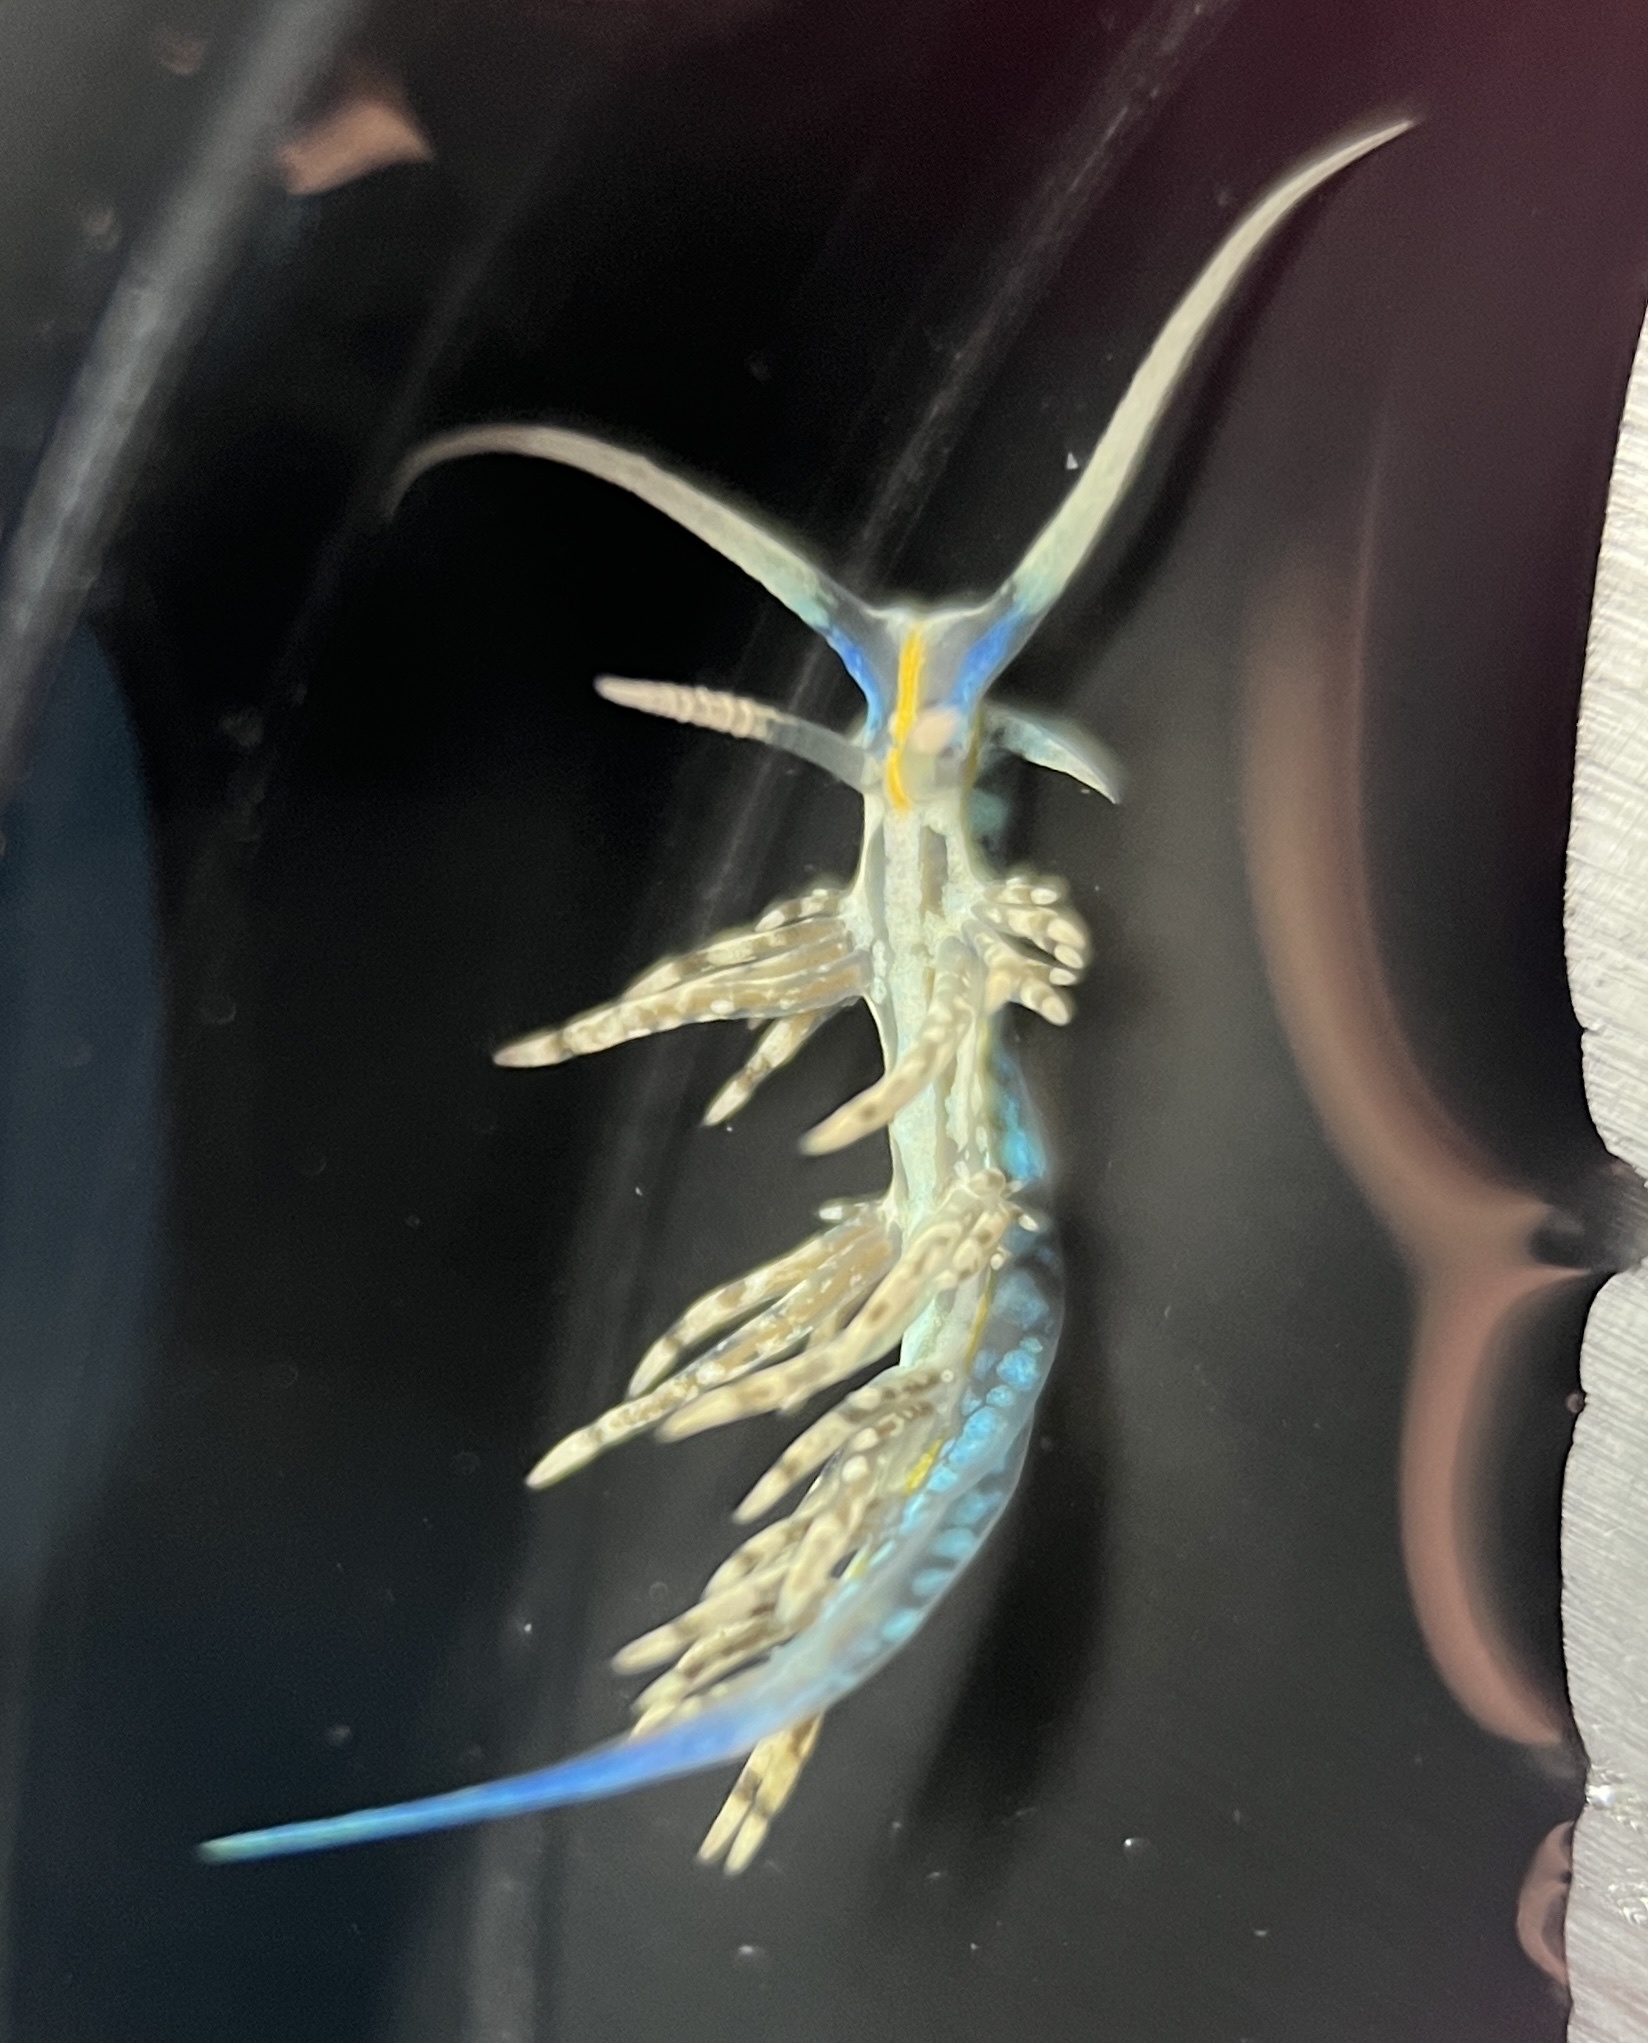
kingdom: Animalia
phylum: Mollusca
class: Gastropoda
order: Nudibranchia
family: Myrrhinidae
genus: Dondice
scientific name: Dondice occidentalis
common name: Fringe-back nudibranch
